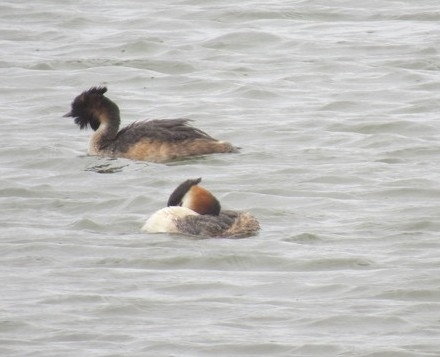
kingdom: Animalia
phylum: Chordata
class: Aves
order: Podicipediformes
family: Podicipedidae
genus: Podiceps
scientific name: Podiceps cristatus
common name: Great crested grebe
